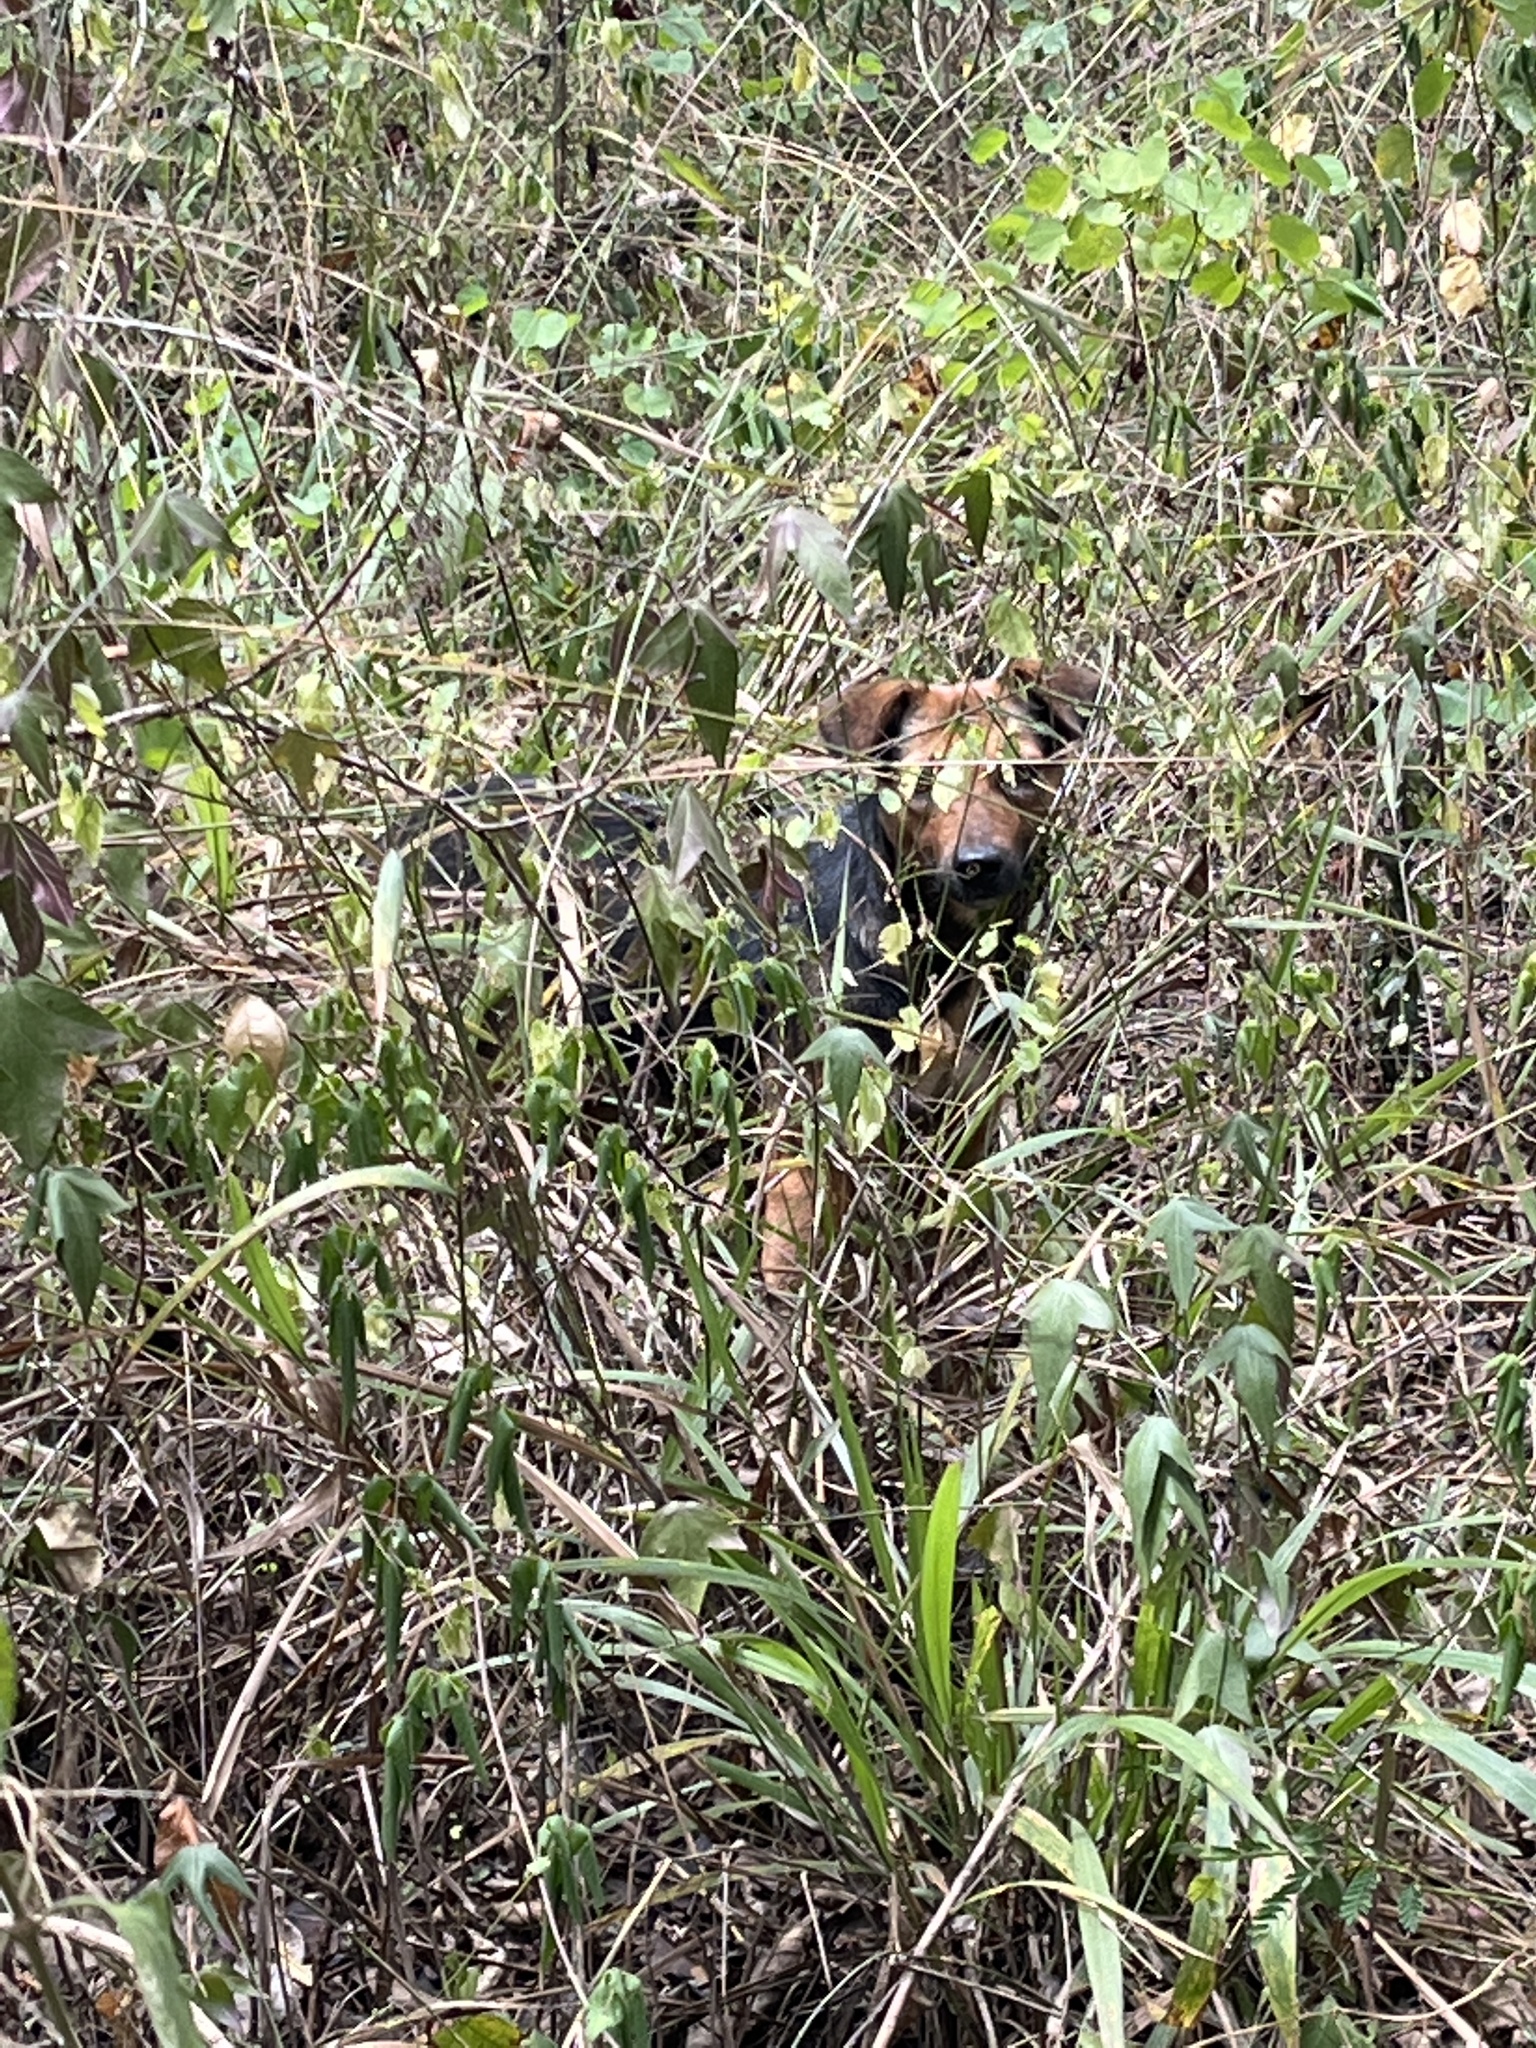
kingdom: Animalia
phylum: Chordata
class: Mammalia
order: Carnivora
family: Canidae
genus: Canis
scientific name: Canis lupus
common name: Gray wolf
